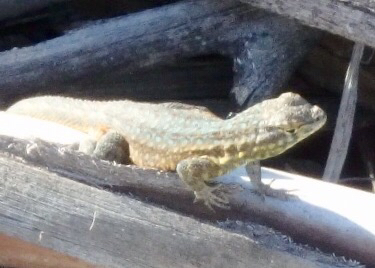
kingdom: Animalia
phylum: Chordata
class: Squamata
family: Phrynosomatidae
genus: Uta
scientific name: Uta stansburiana
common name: Side-blotched lizard
